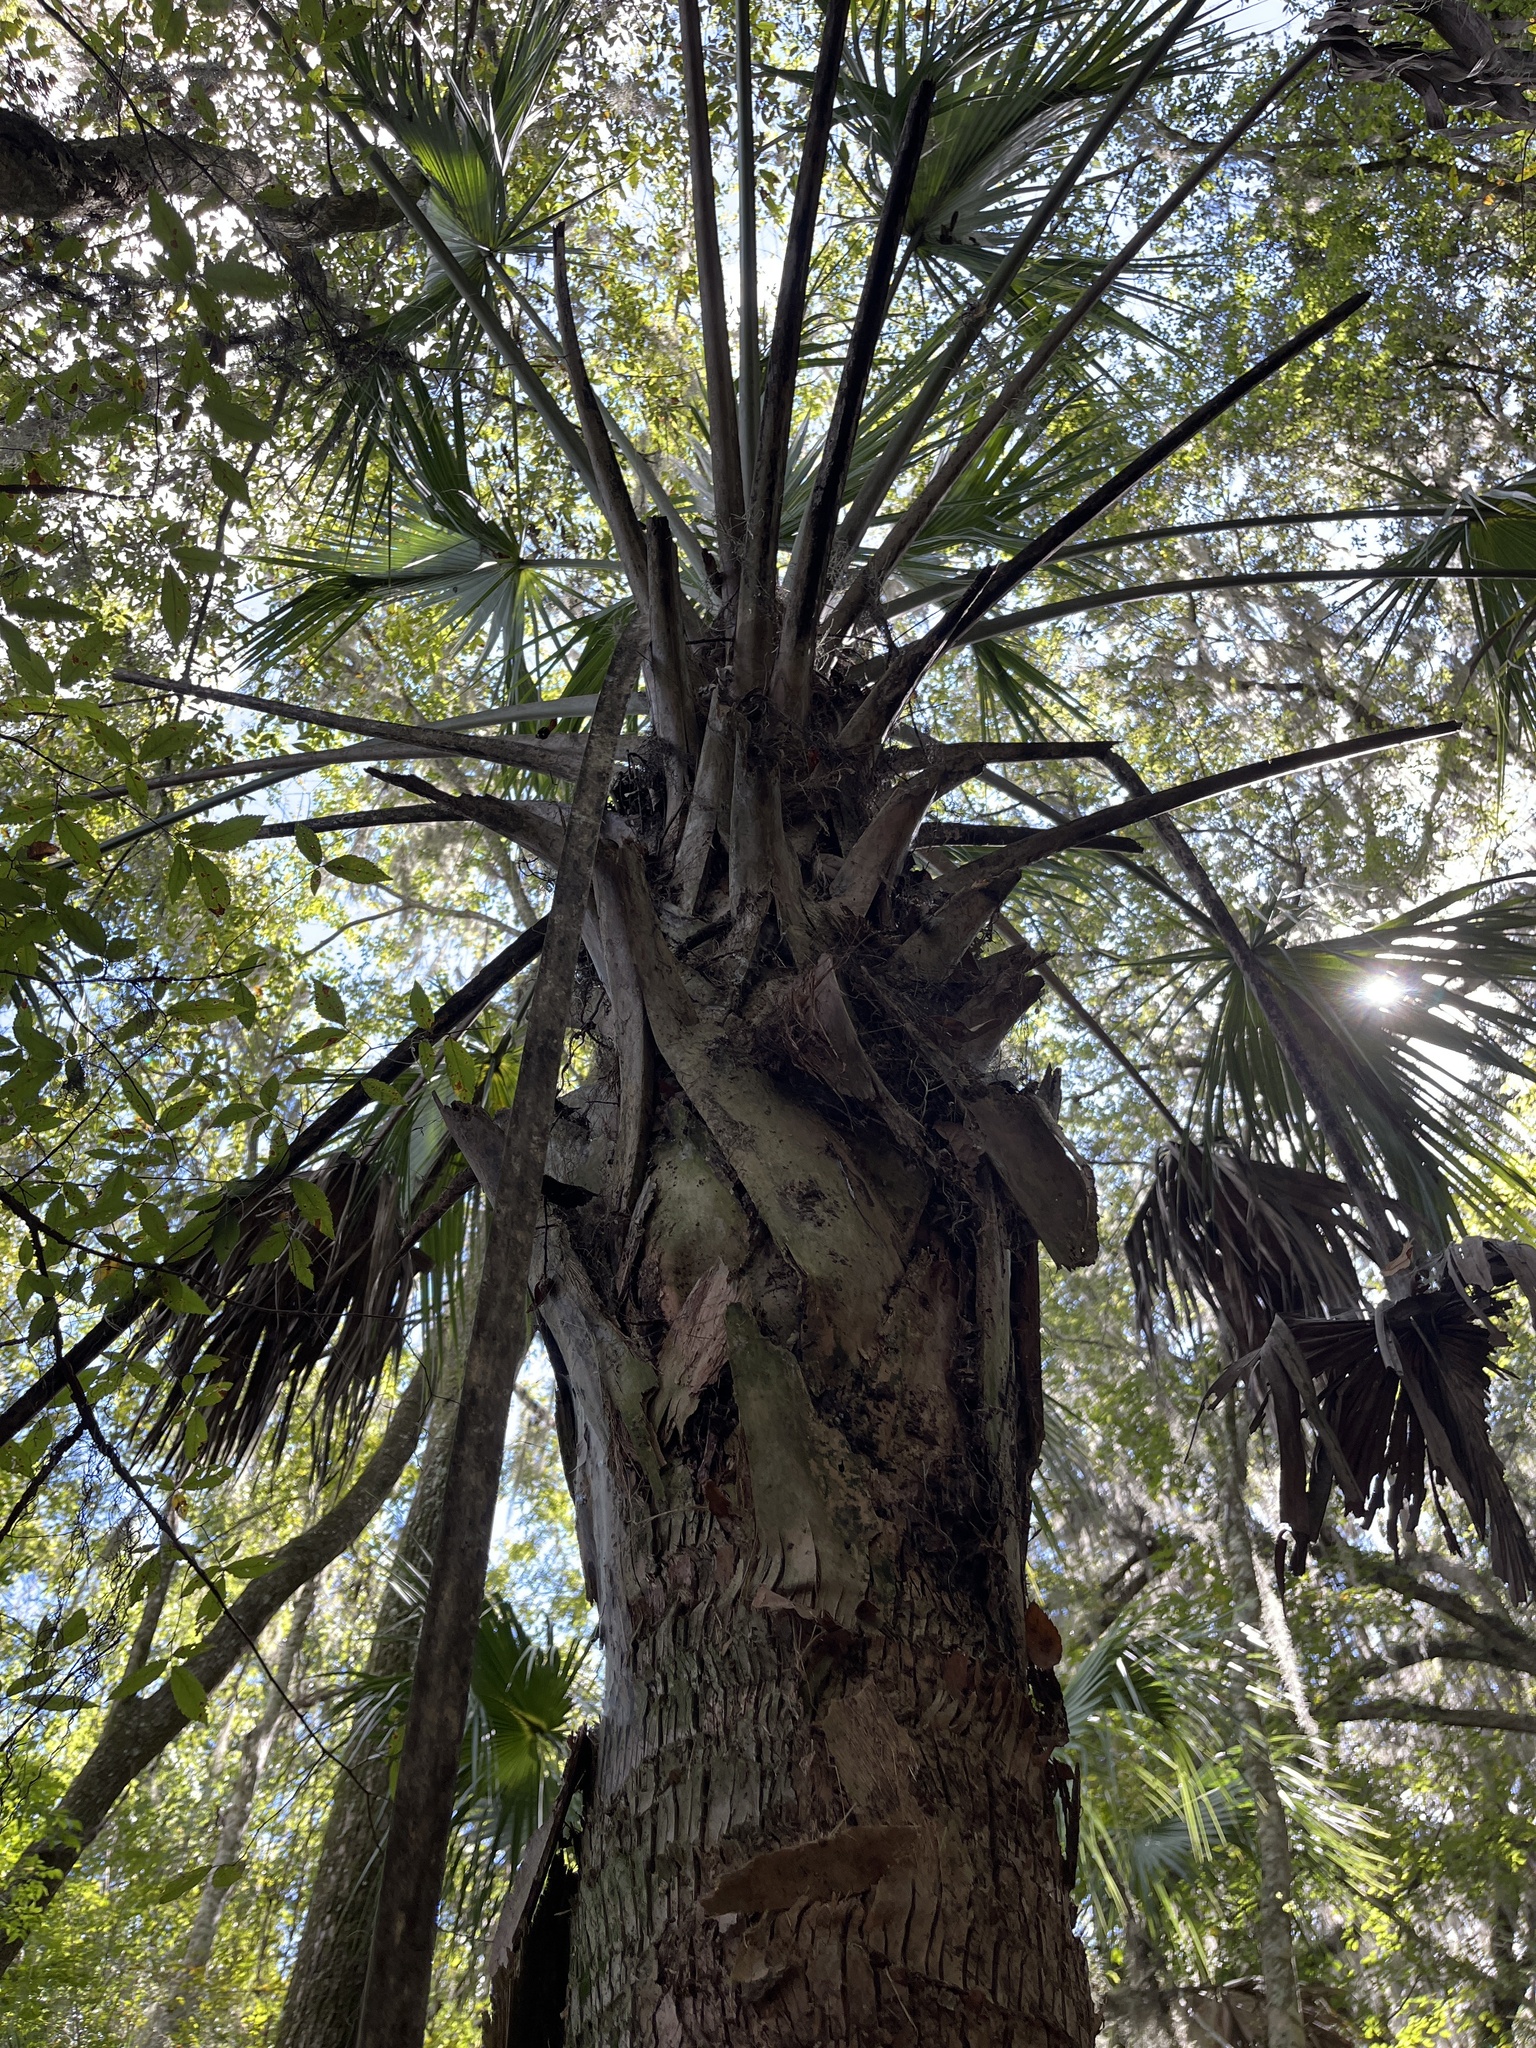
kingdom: Plantae
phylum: Tracheophyta
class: Liliopsida
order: Arecales
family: Arecaceae
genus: Sabal
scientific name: Sabal palmetto
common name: Blue palmetto
